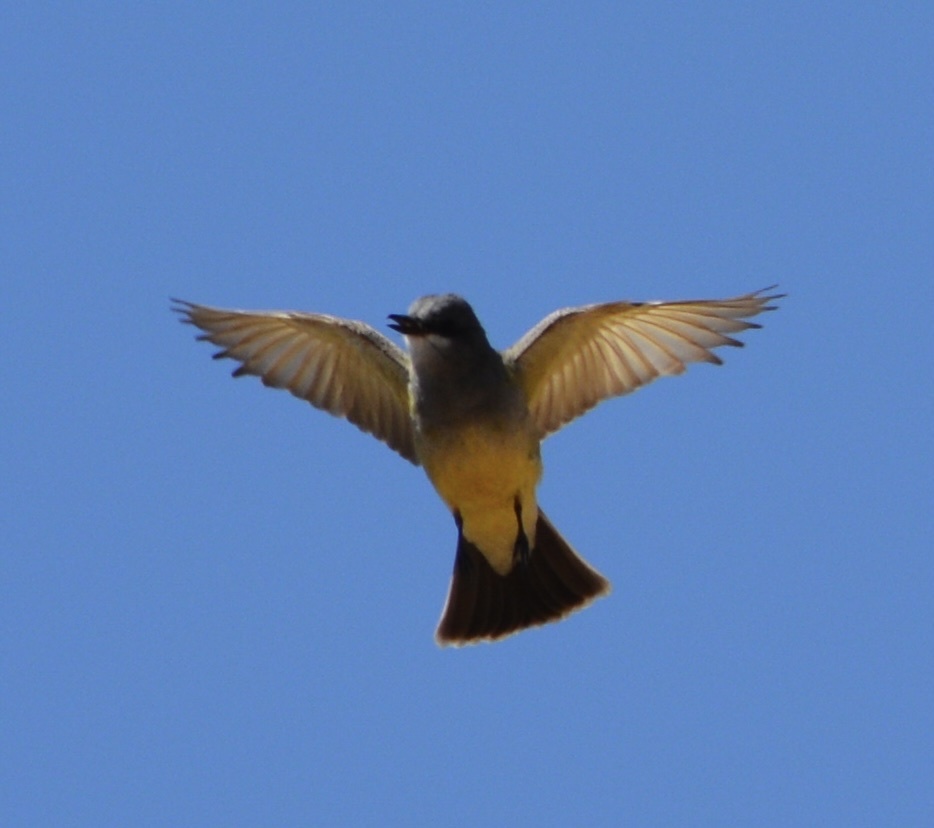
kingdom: Animalia
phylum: Chordata
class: Aves
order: Passeriformes
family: Tyrannidae
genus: Tyrannus
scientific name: Tyrannus vociferans
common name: Cassin's kingbird
